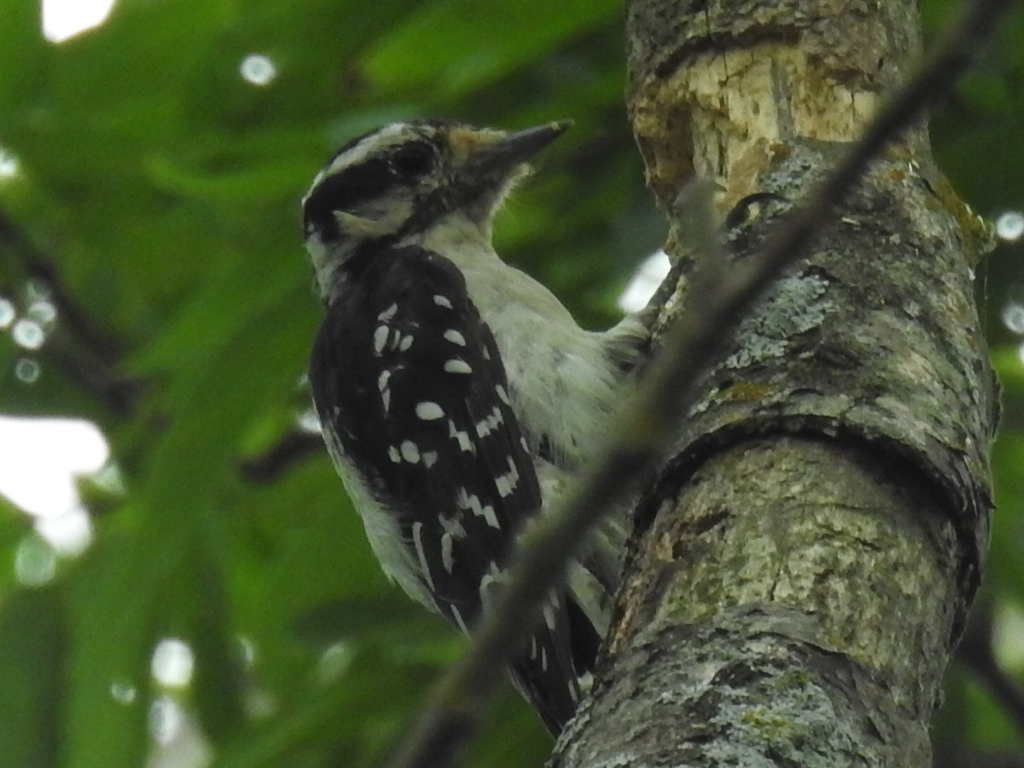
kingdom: Animalia
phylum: Chordata
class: Aves
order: Piciformes
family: Picidae
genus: Dryobates
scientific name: Dryobates pubescens
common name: Downy woodpecker
